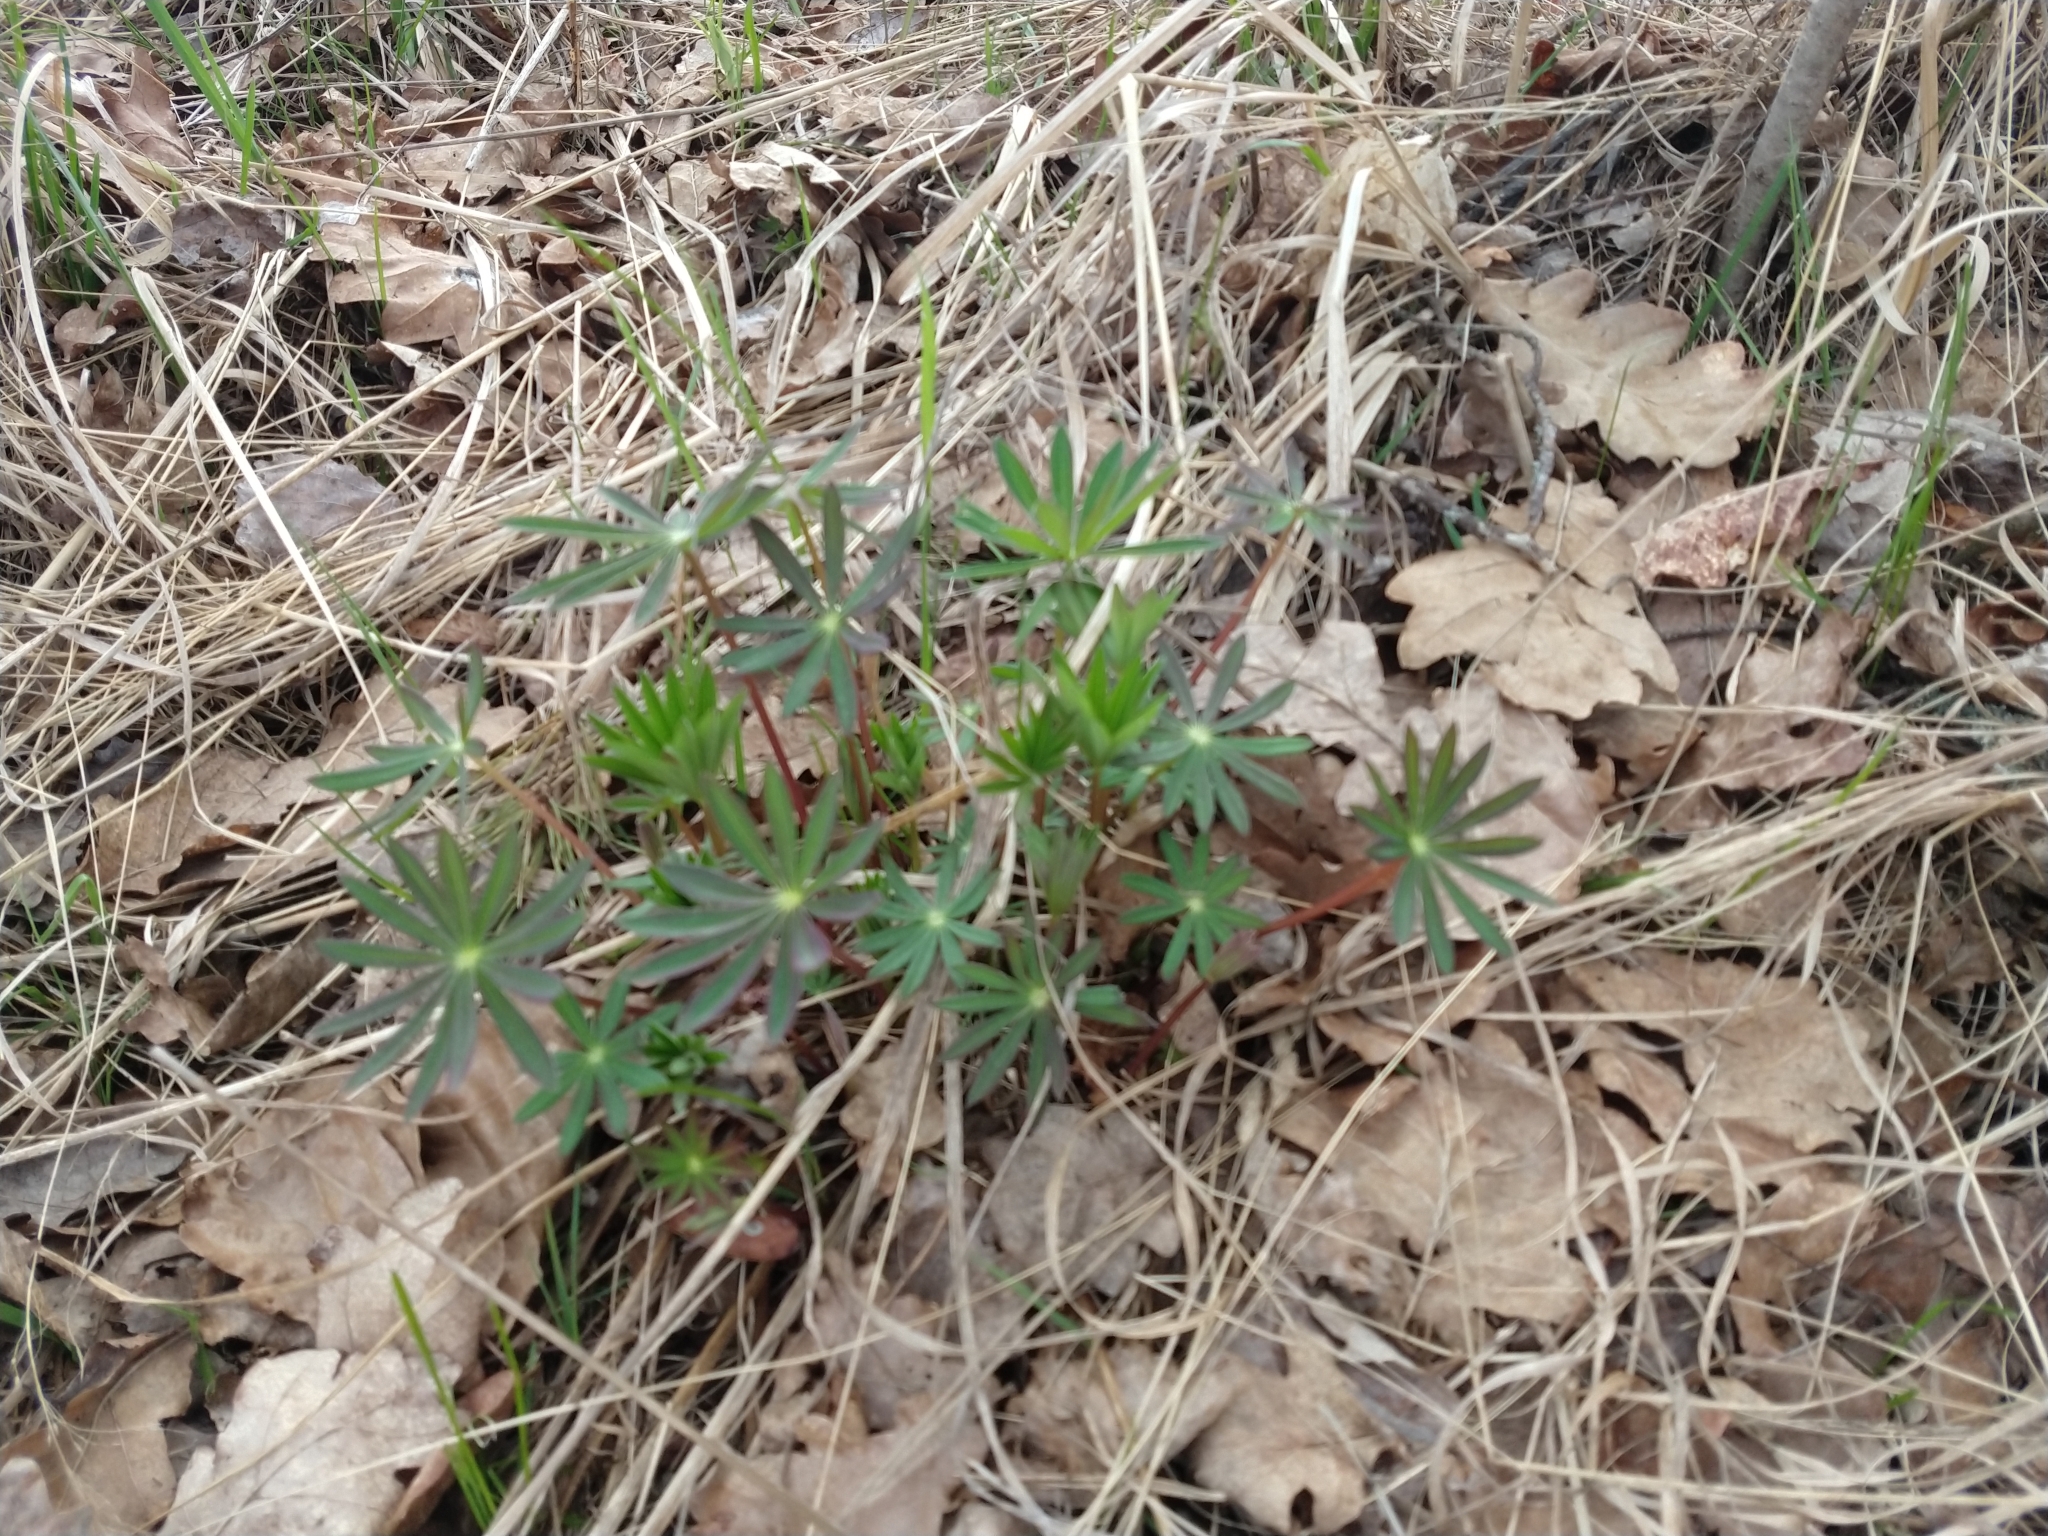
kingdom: Plantae
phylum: Tracheophyta
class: Magnoliopsida
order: Fabales
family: Fabaceae
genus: Lupinus
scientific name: Lupinus polyphyllus
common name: Garden lupin
